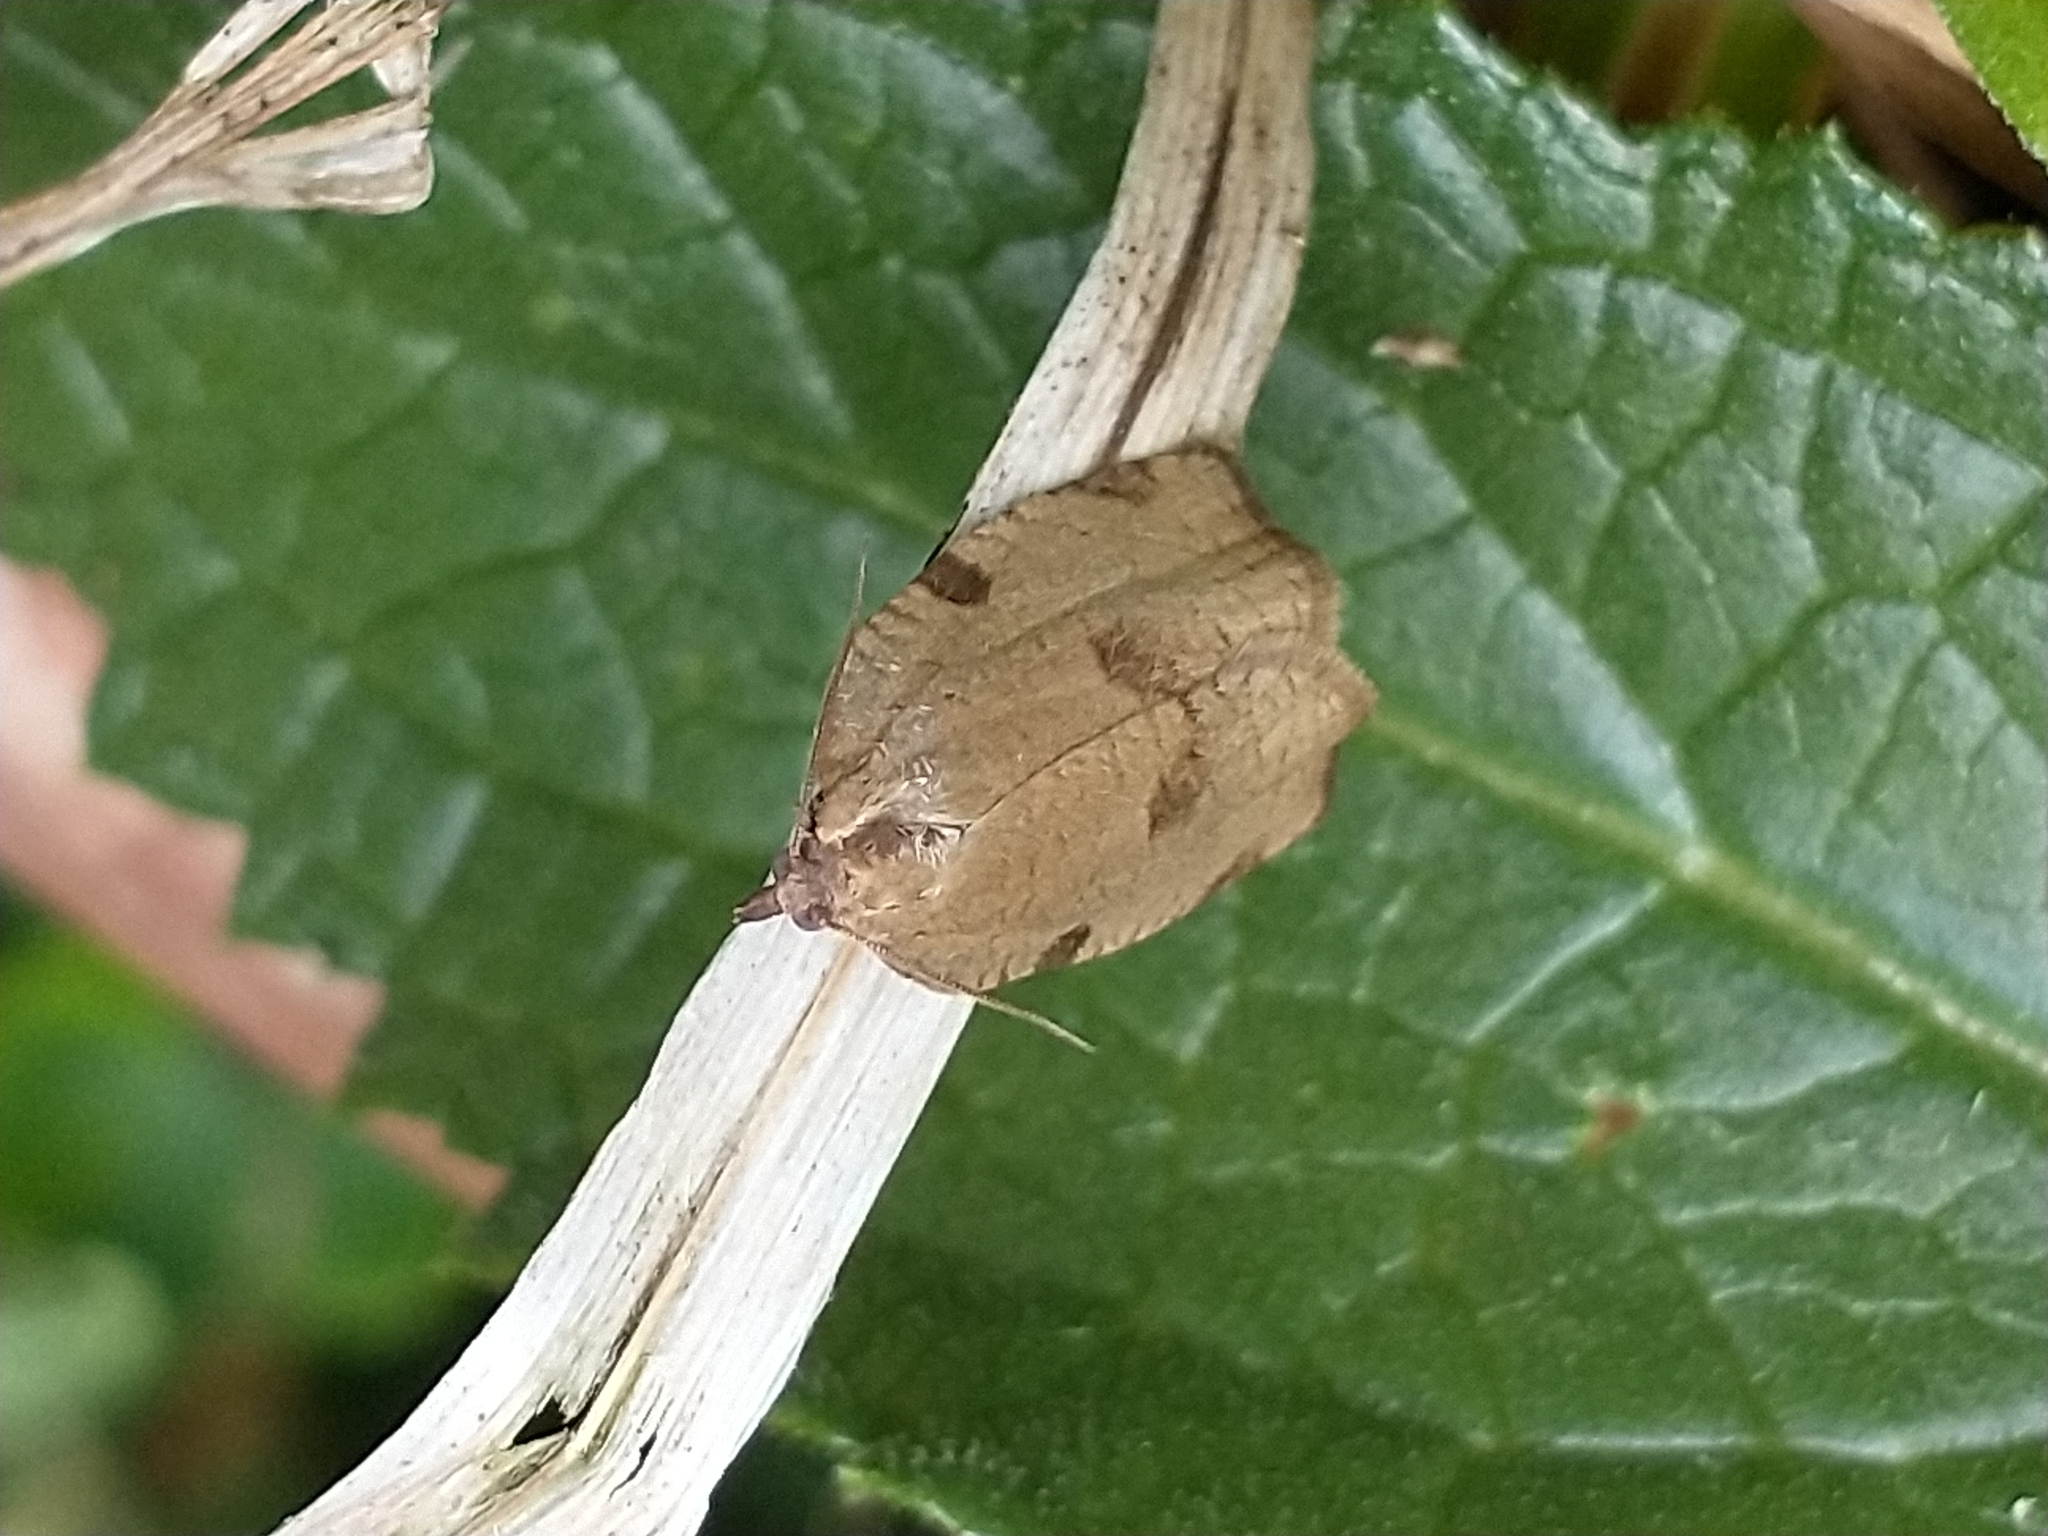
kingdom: Animalia
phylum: Arthropoda
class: Insecta
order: Lepidoptera
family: Tortricidae
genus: Lozotaenia
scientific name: Lozotaenia forsterana
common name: Large ivy twist
